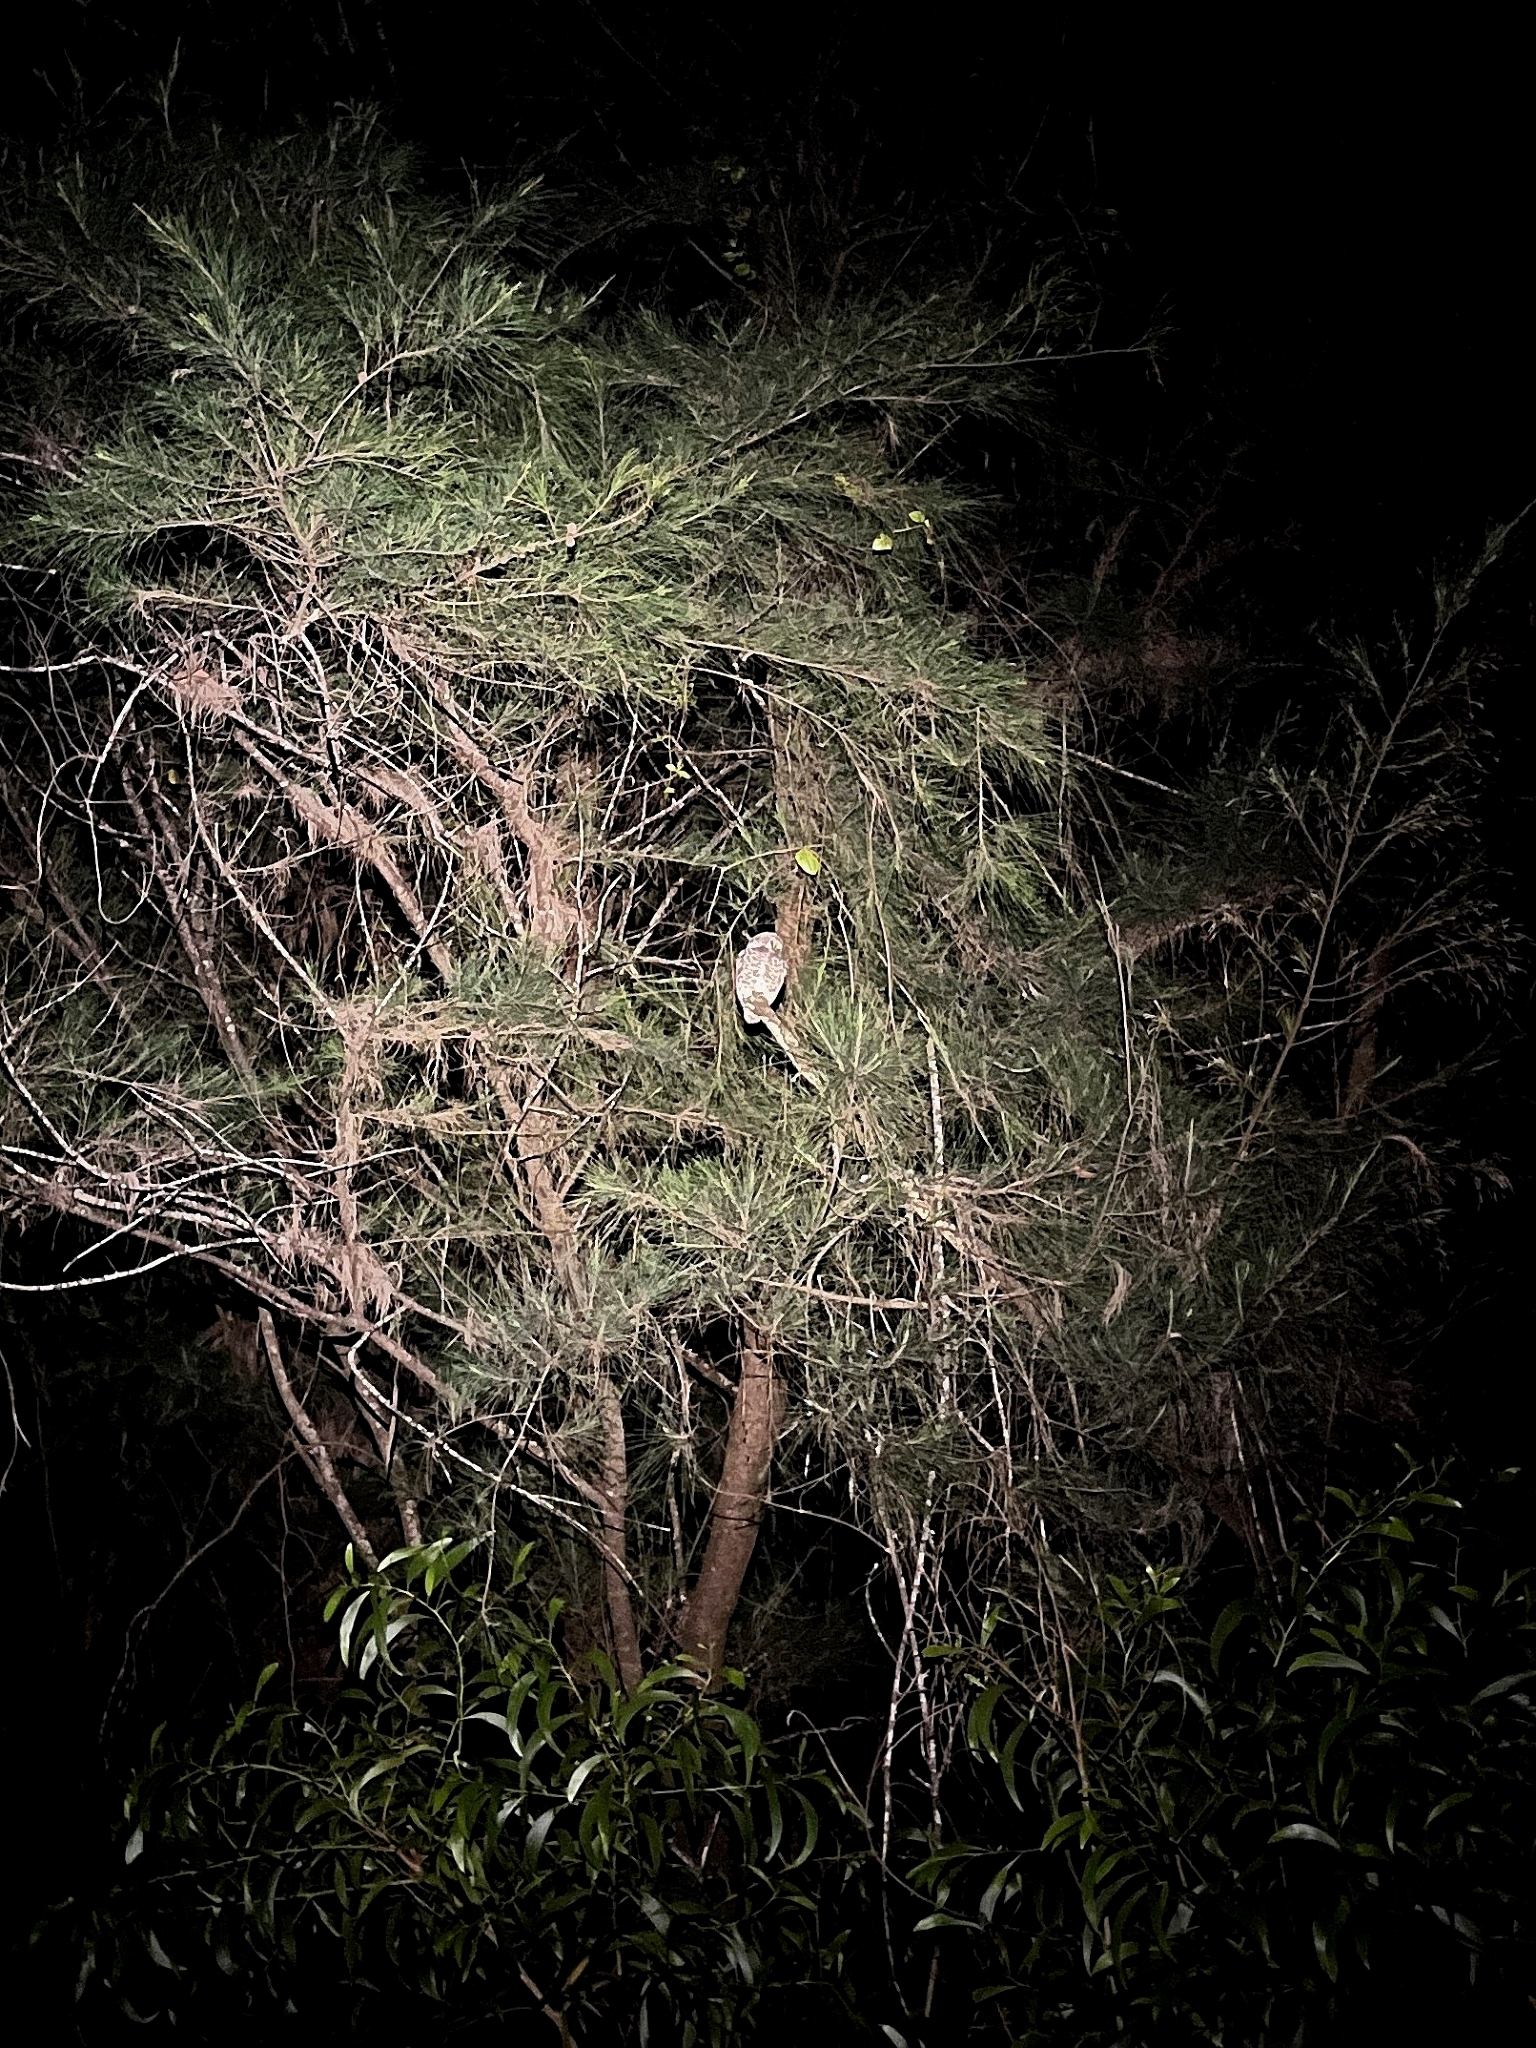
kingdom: Animalia
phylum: Chordata
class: Aves
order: Strigiformes
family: Strigidae
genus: Athene
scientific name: Athene brama
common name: Spotted owlet
